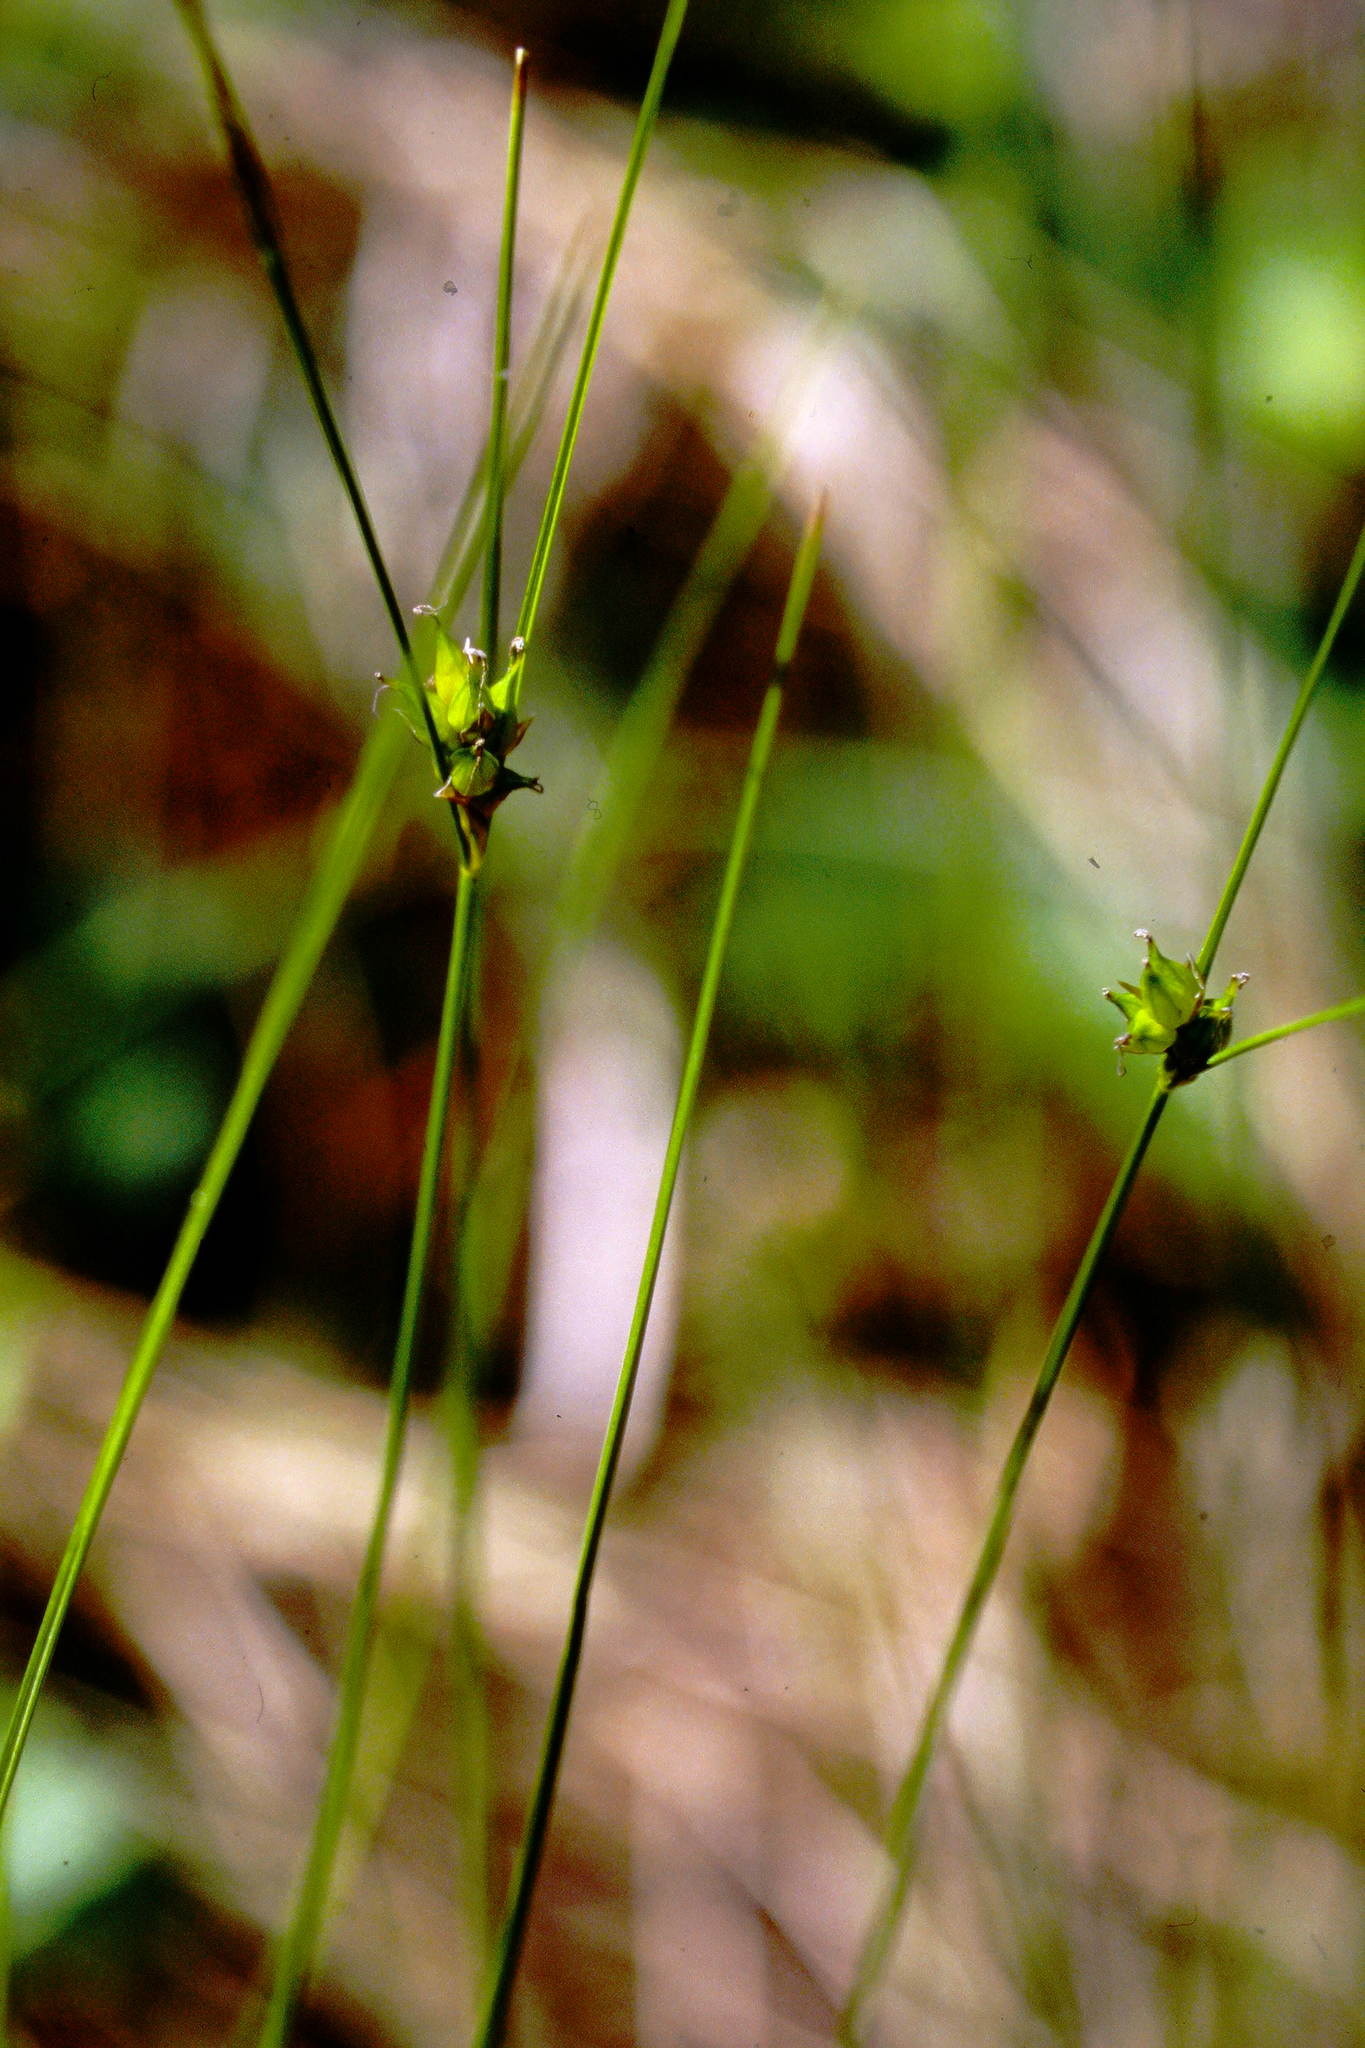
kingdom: Plantae
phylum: Tracheophyta
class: Liliopsida
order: Poales
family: Cyperaceae
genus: Carex
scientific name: Carex oligosperma
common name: Few-seed sedge
